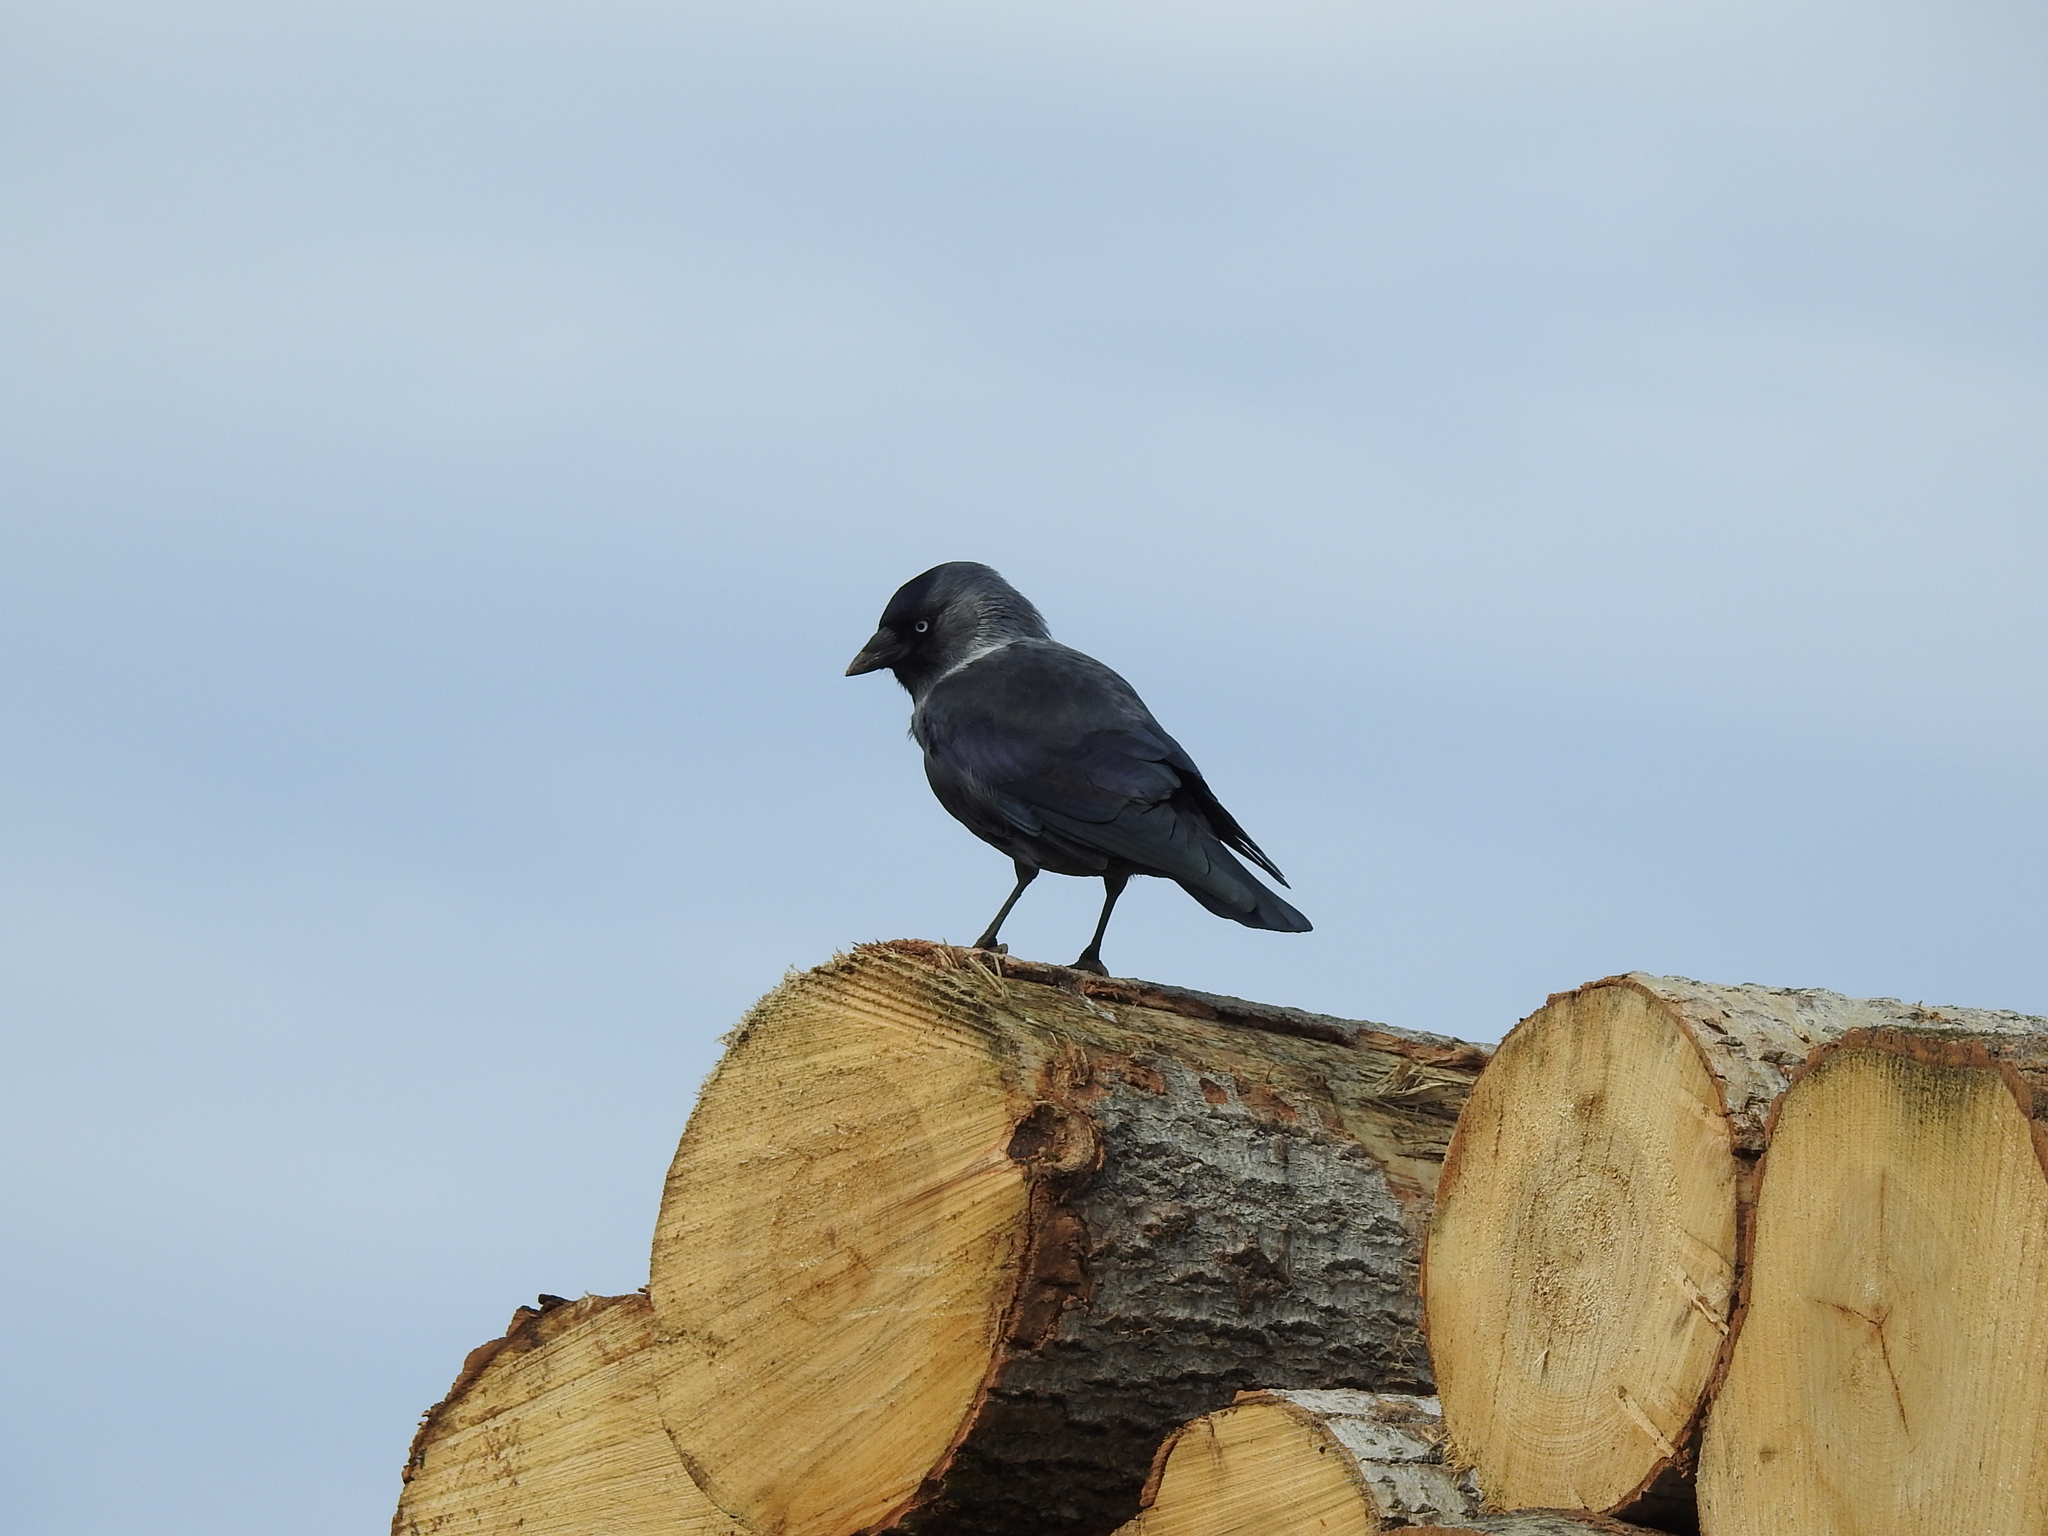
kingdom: Animalia
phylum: Chordata
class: Aves
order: Passeriformes
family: Corvidae
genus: Coloeus
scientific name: Coloeus monedula
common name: Western jackdaw
